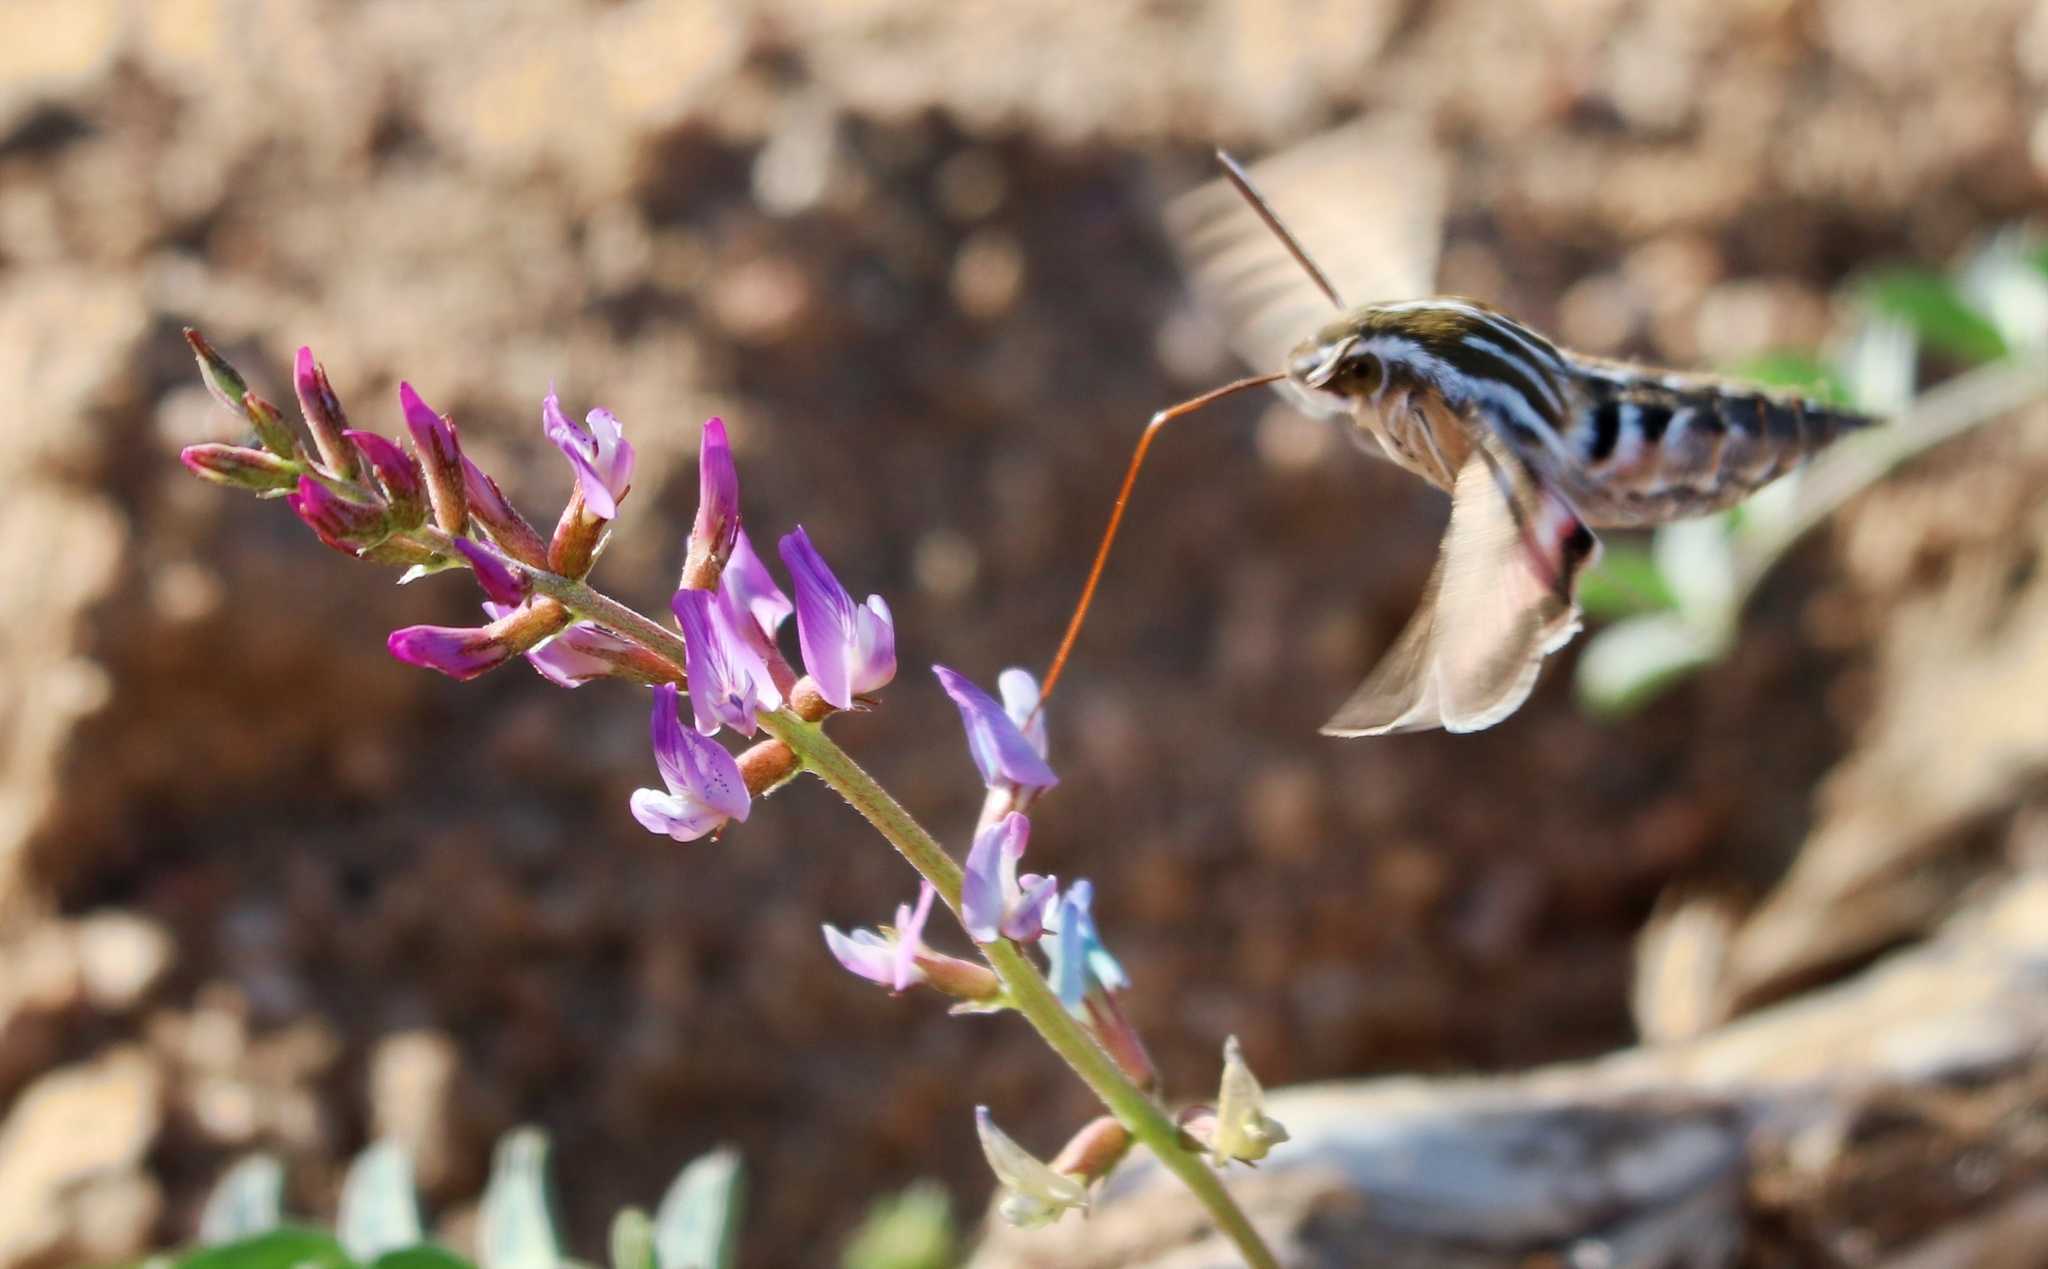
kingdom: Animalia
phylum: Arthropoda
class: Insecta
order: Lepidoptera
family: Sphingidae
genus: Hyles
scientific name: Hyles lineata
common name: White-lined sphinx
